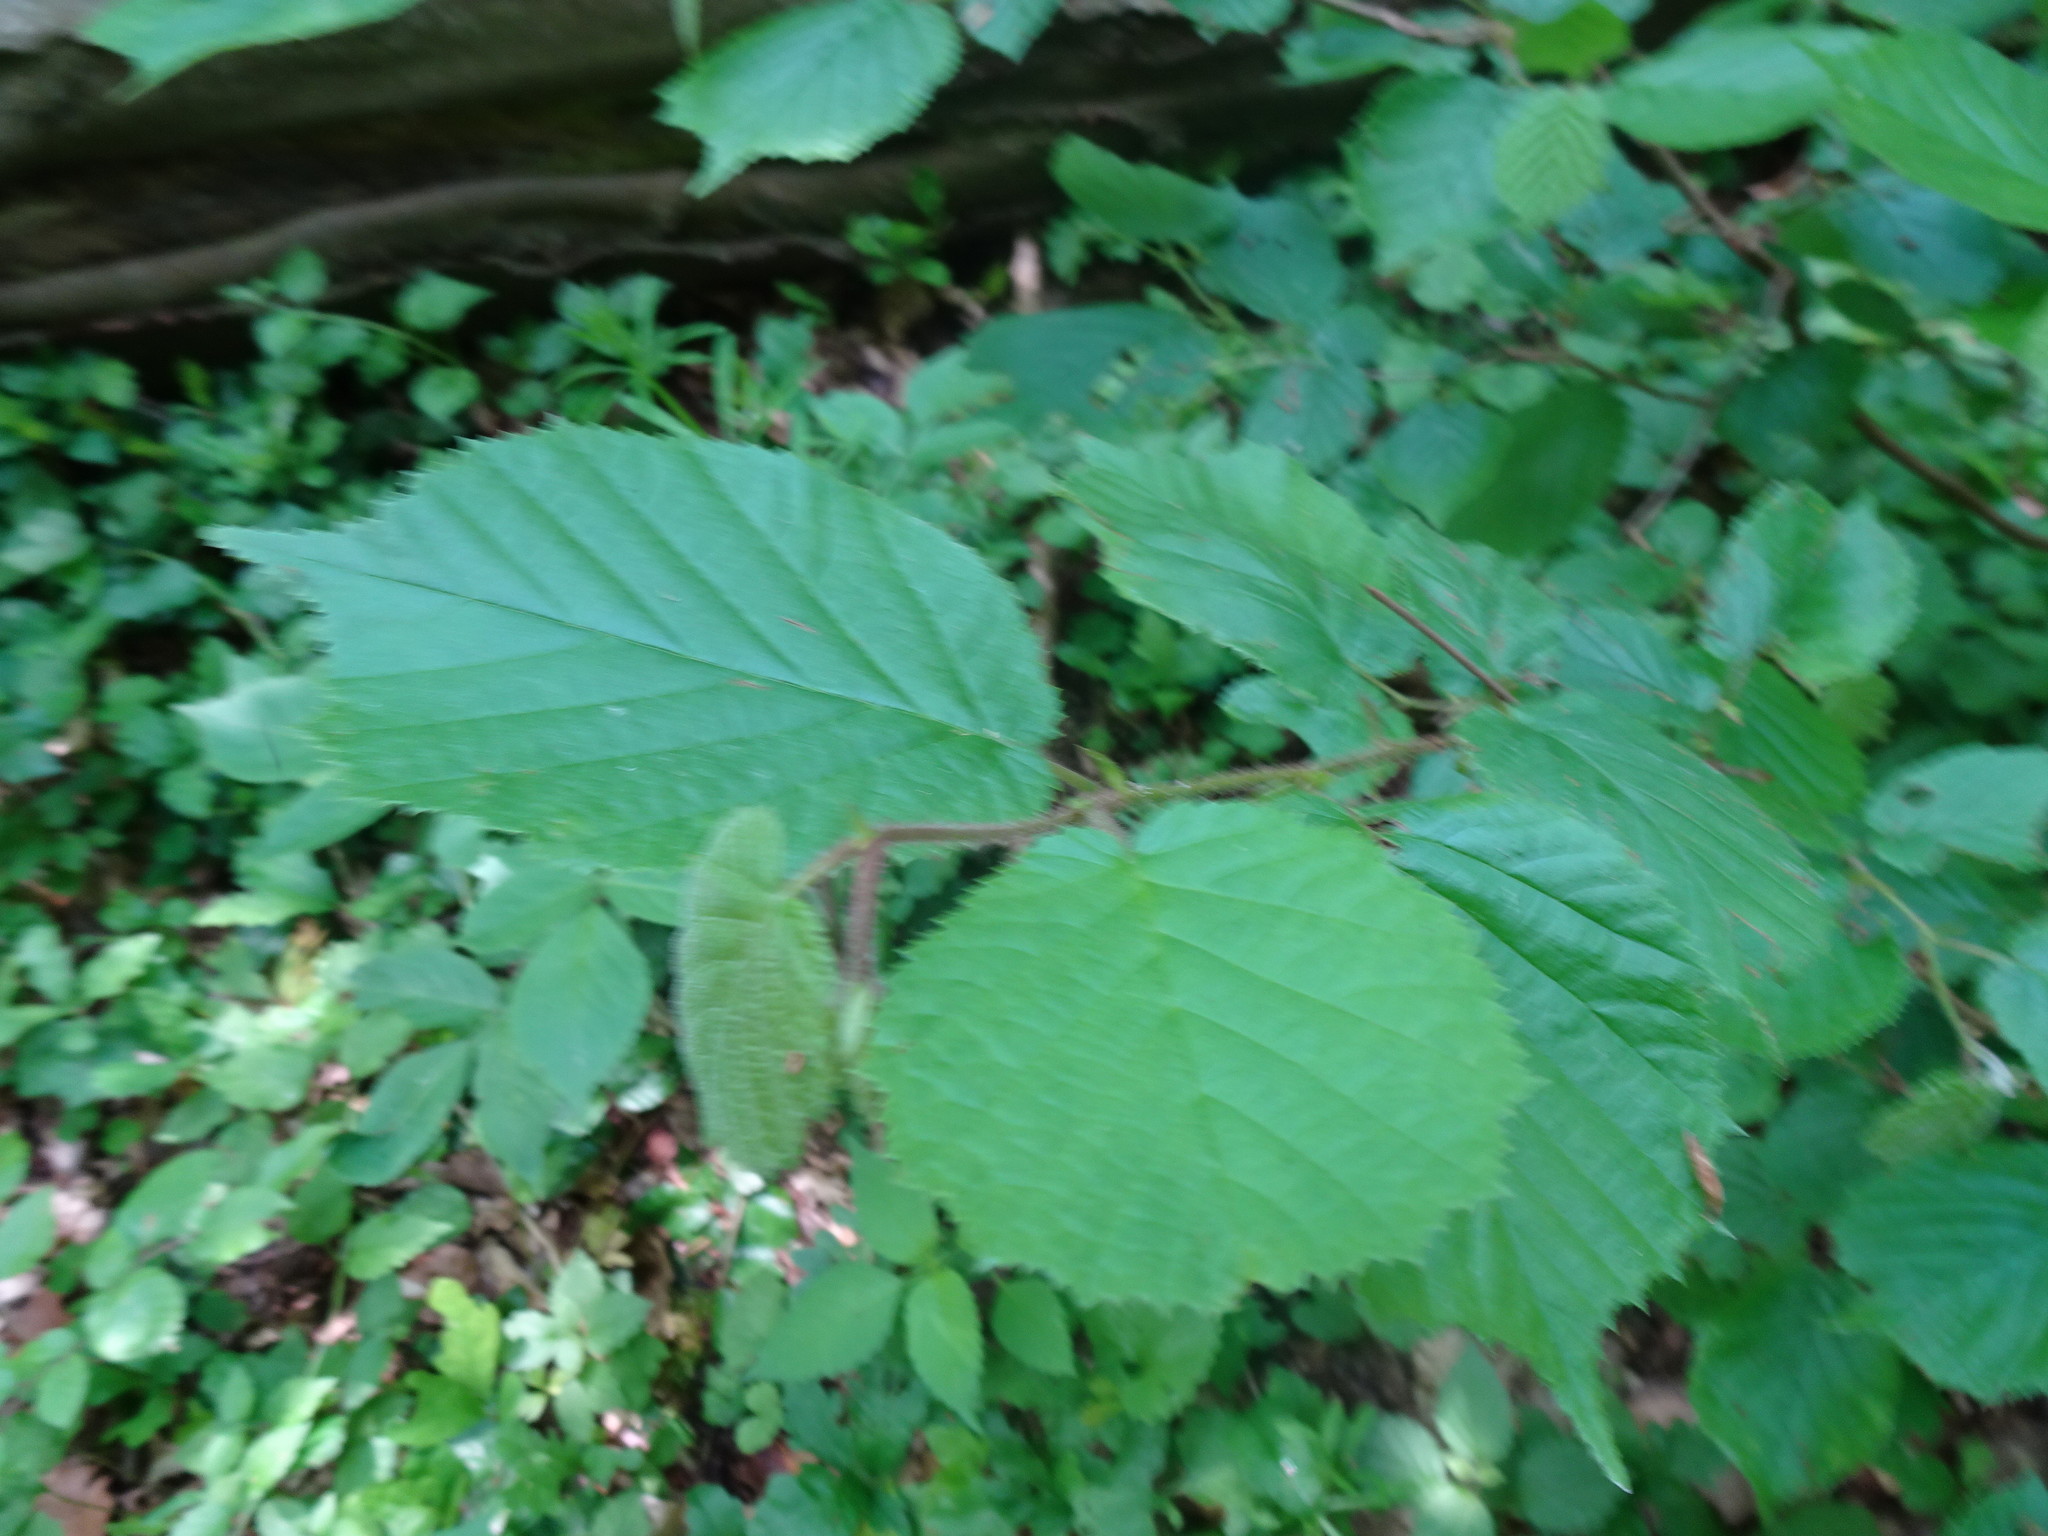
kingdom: Plantae
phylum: Tracheophyta
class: Magnoliopsida
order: Fagales
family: Betulaceae
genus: Corylus
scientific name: Corylus avellana
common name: European hazel
